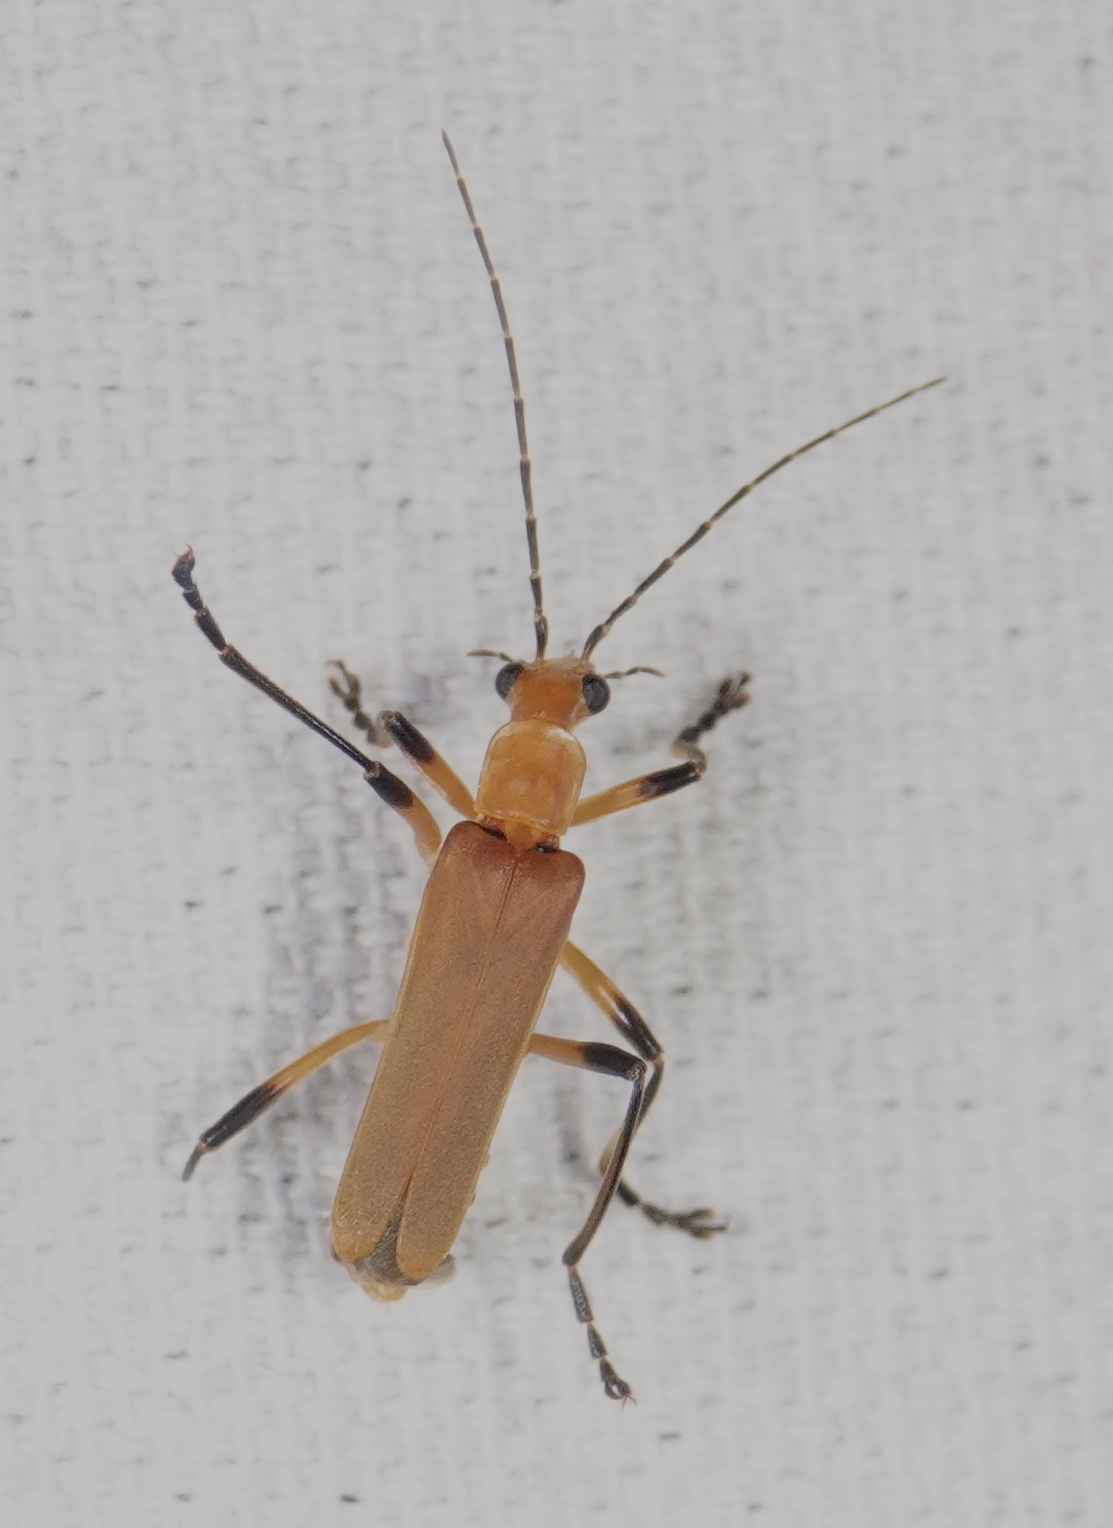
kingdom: Animalia
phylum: Arthropoda
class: Insecta
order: Coleoptera
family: Cantharidae
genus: Chauliognathus
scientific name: Chauliognathus
